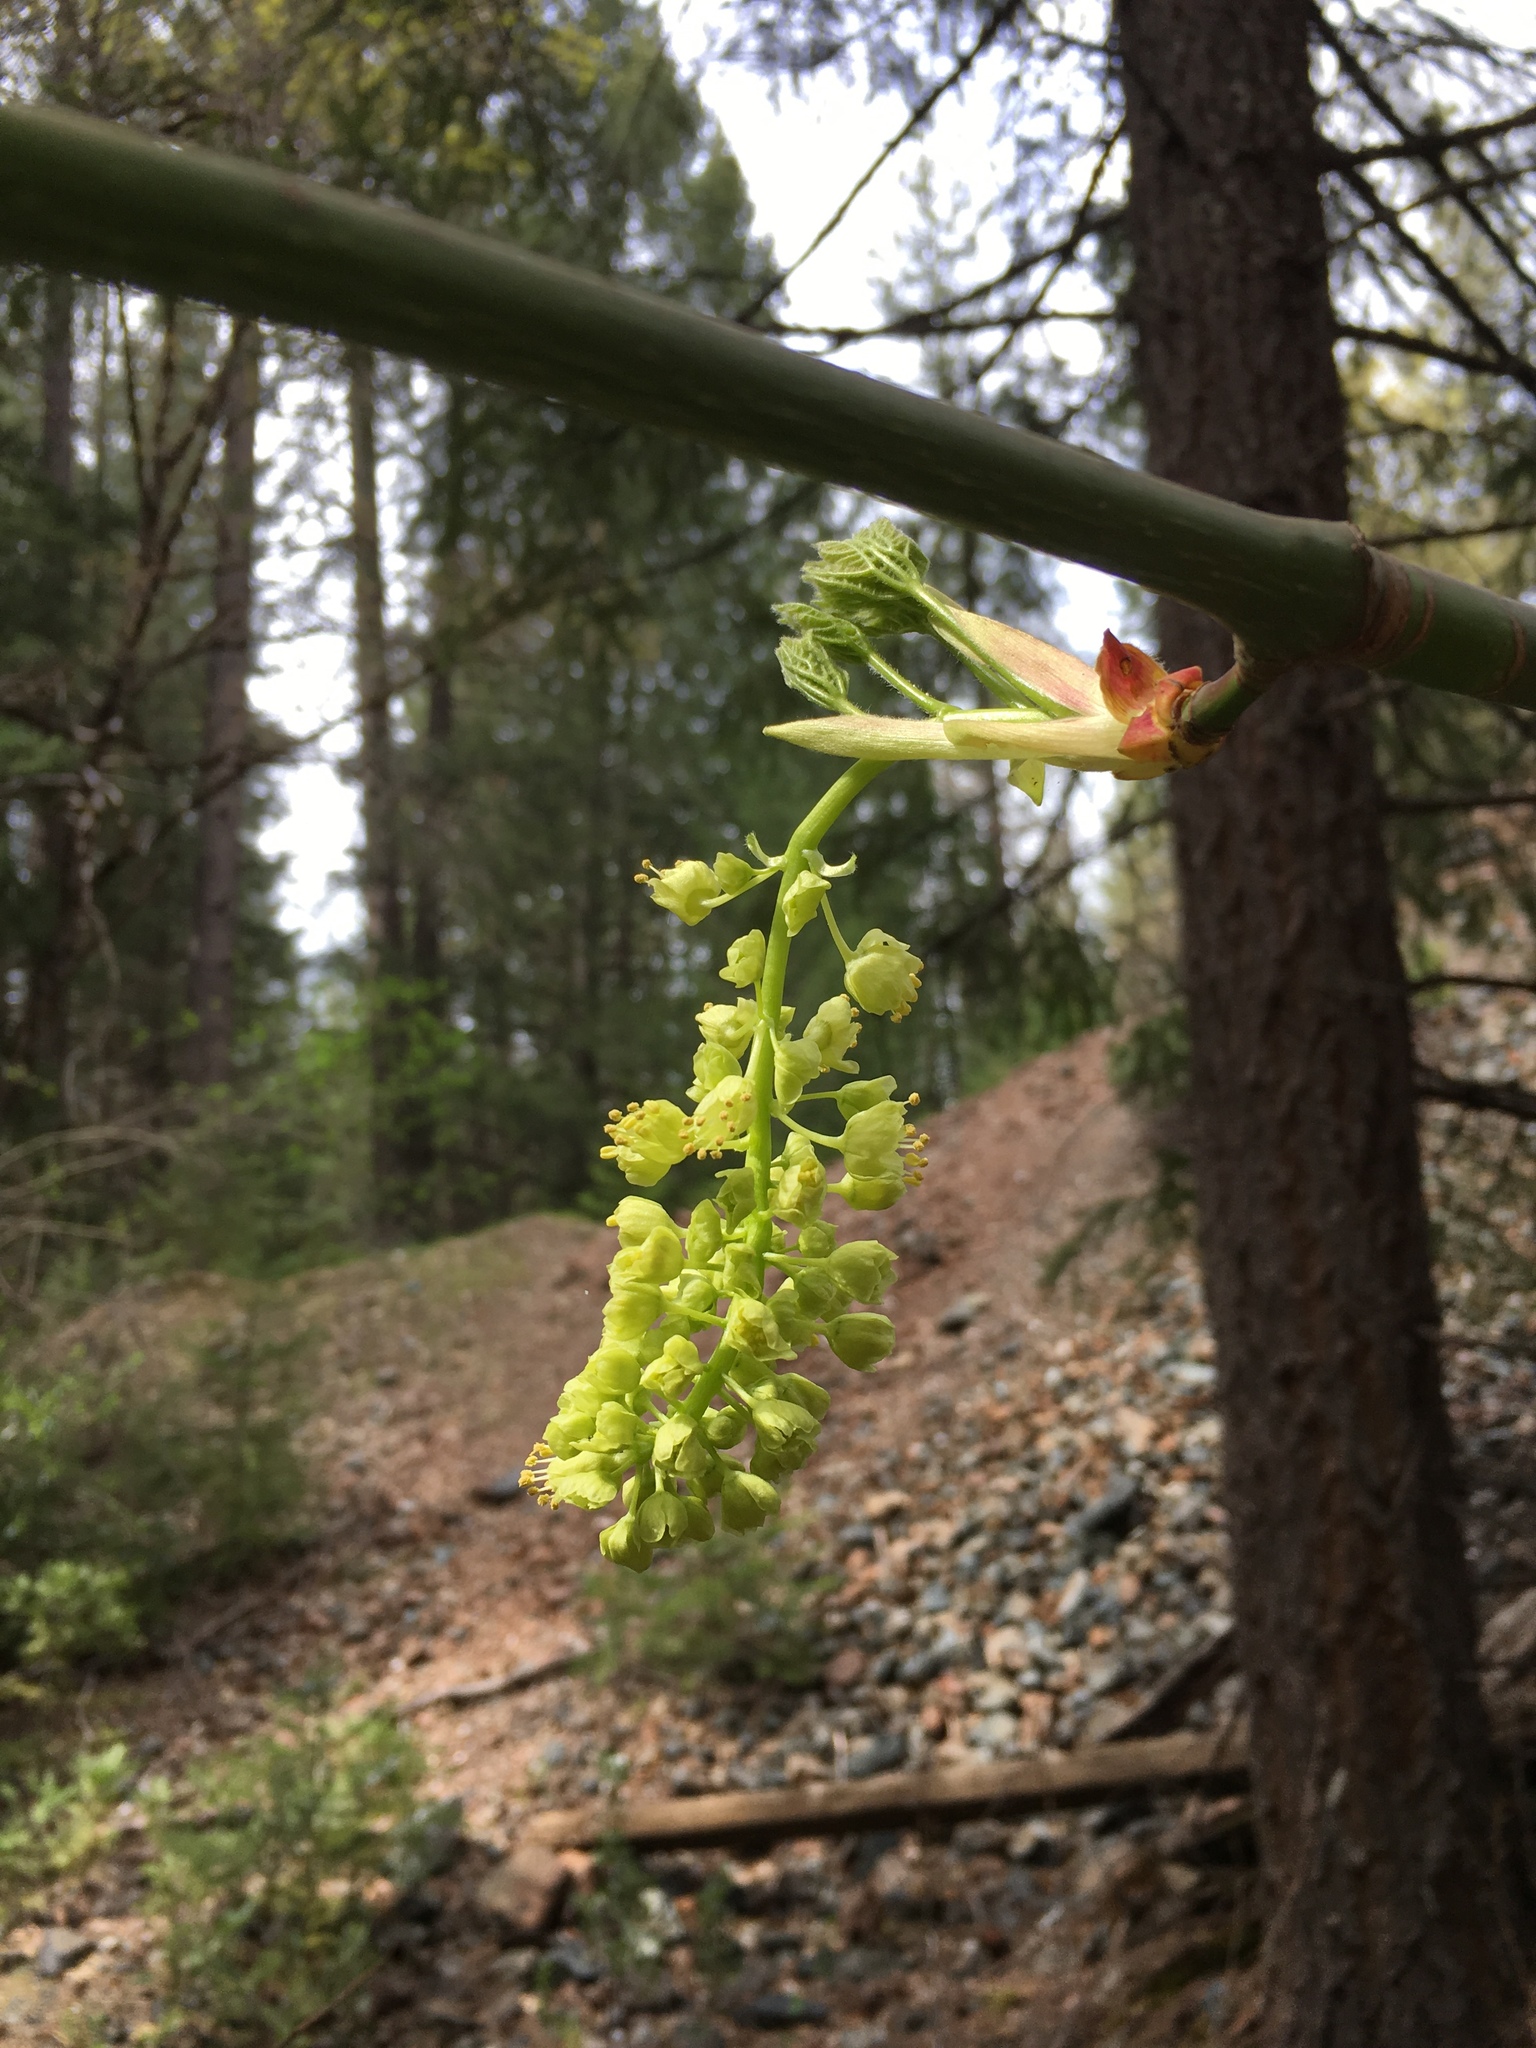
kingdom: Plantae
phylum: Tracheophyta
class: Magnoliopsida
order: Sapindales
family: Sapindaceae
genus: Acer
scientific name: Acer macrophyllum
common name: Oregon maple
